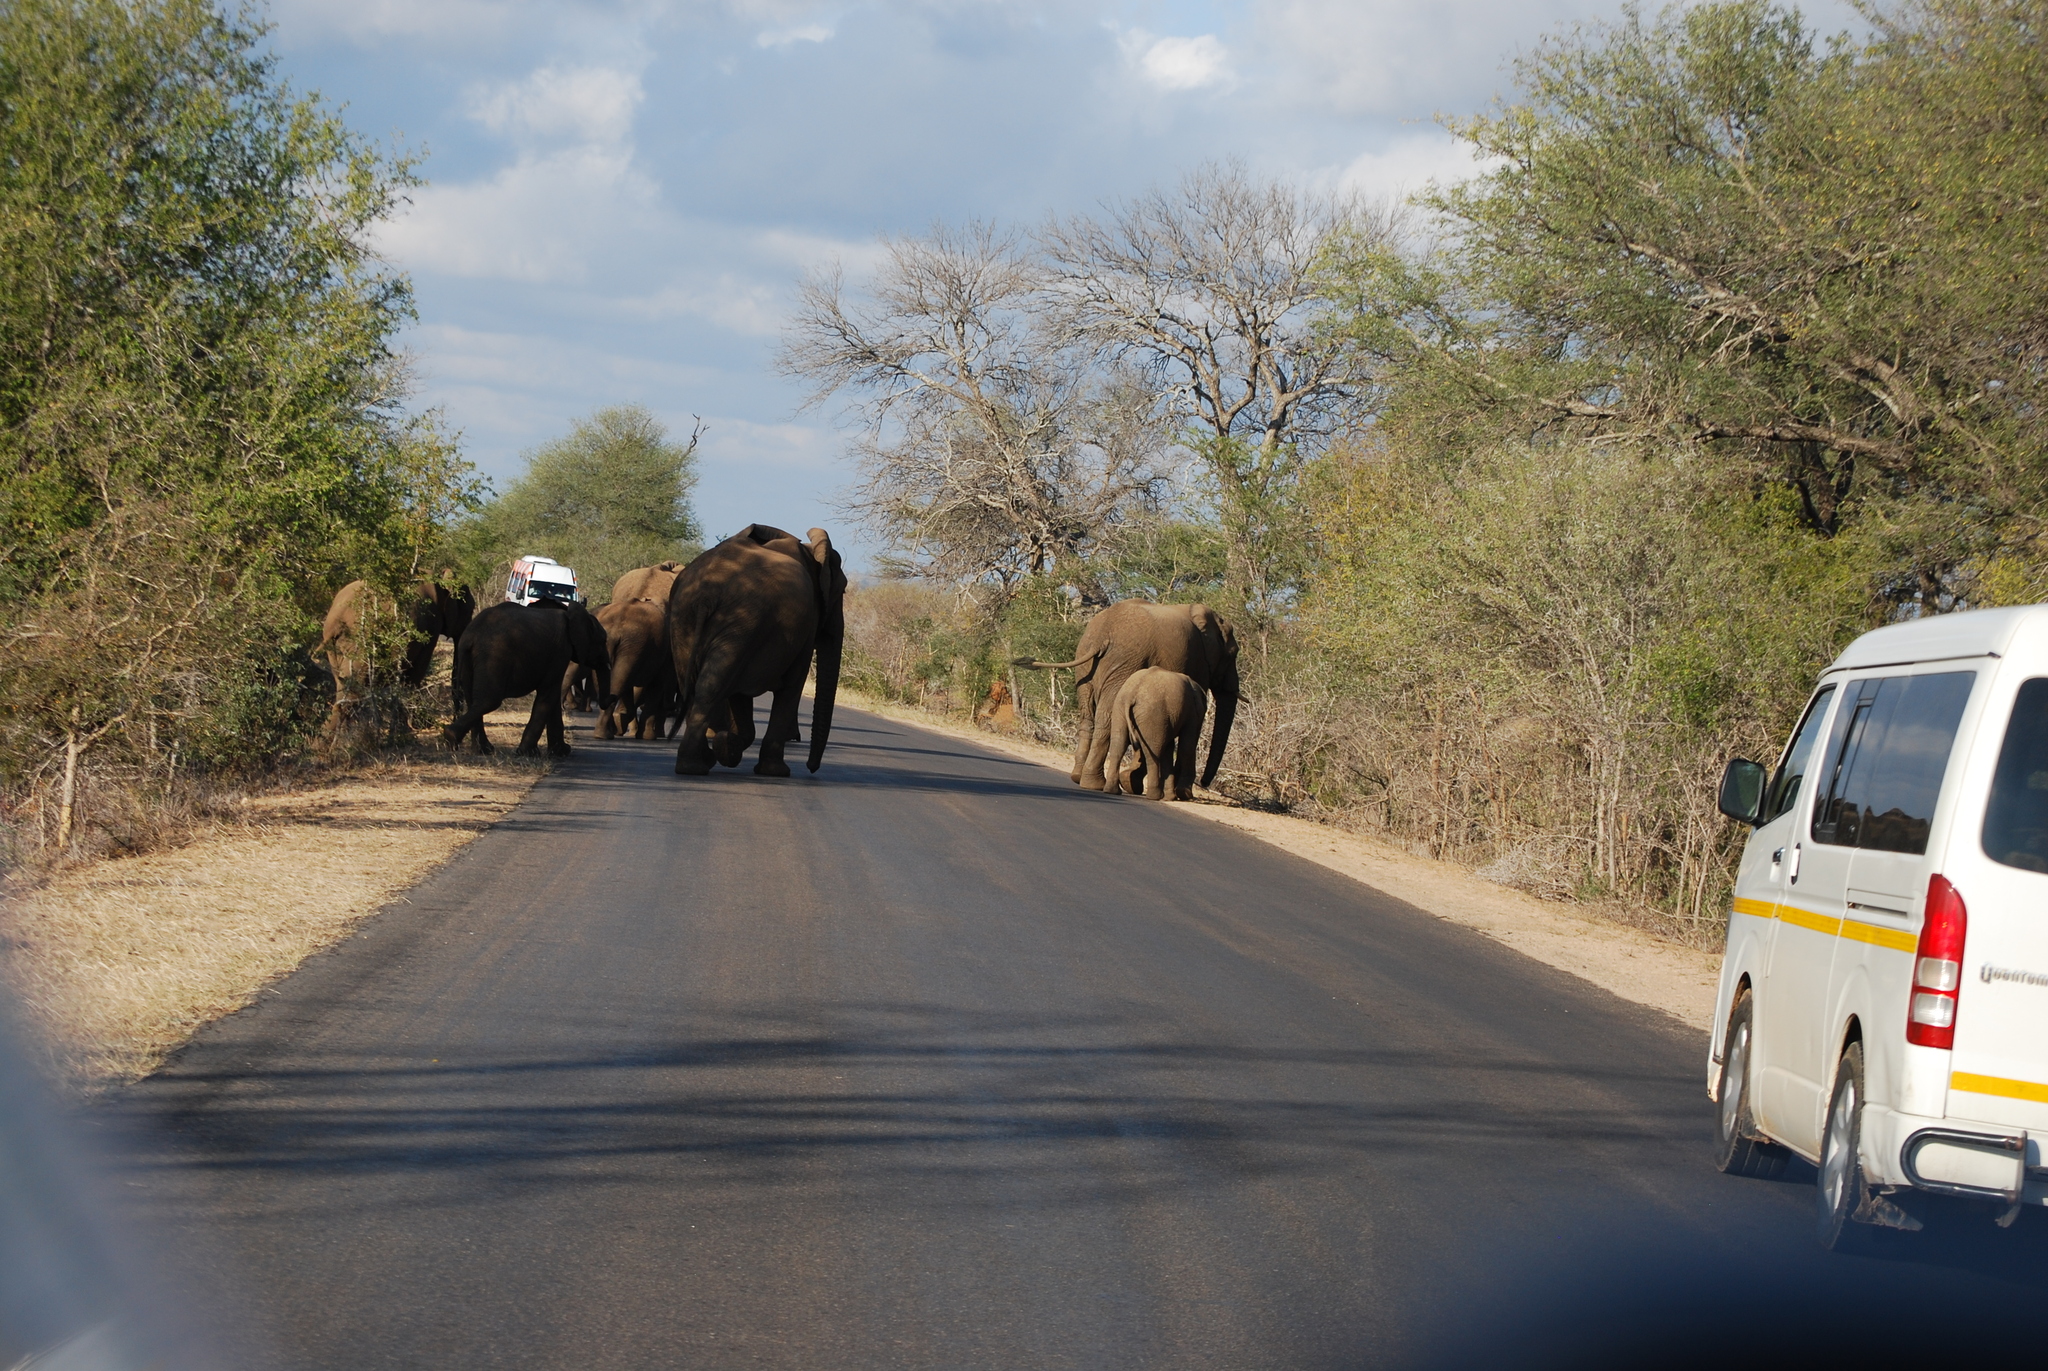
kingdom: Animalia
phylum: Chordata
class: Mammalia
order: Proboscidea
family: Elephantidae
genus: Loxodonta
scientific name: Loxodonta africana
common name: African elephant
